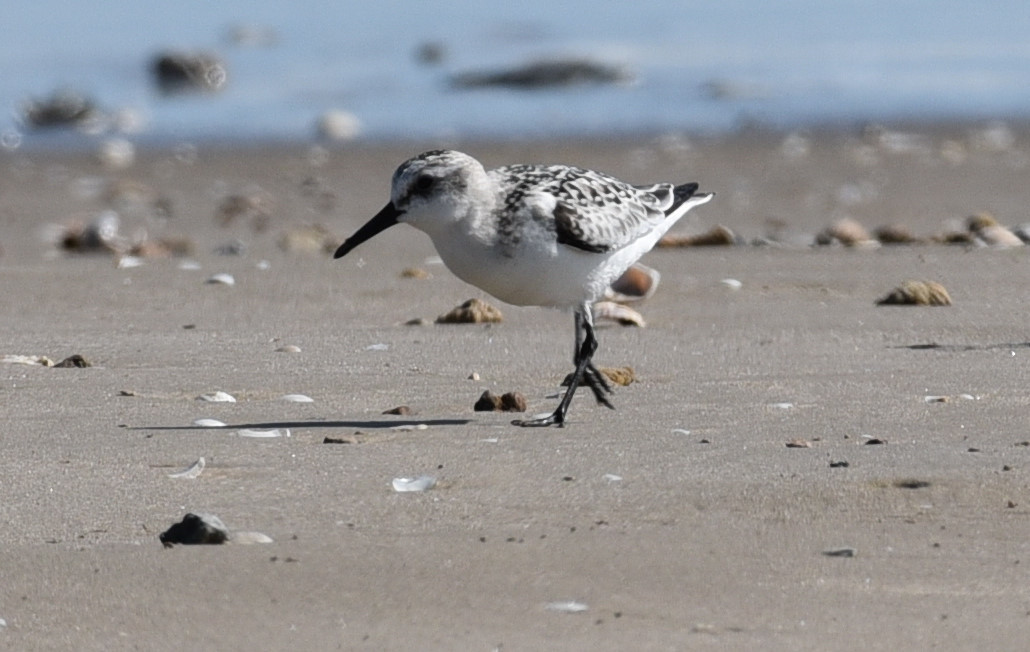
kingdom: Animalia
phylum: Chordata
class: Aves
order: Charadriiformes
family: Scolopacidae
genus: Calidris
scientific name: Calidris alba
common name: Sanderling
